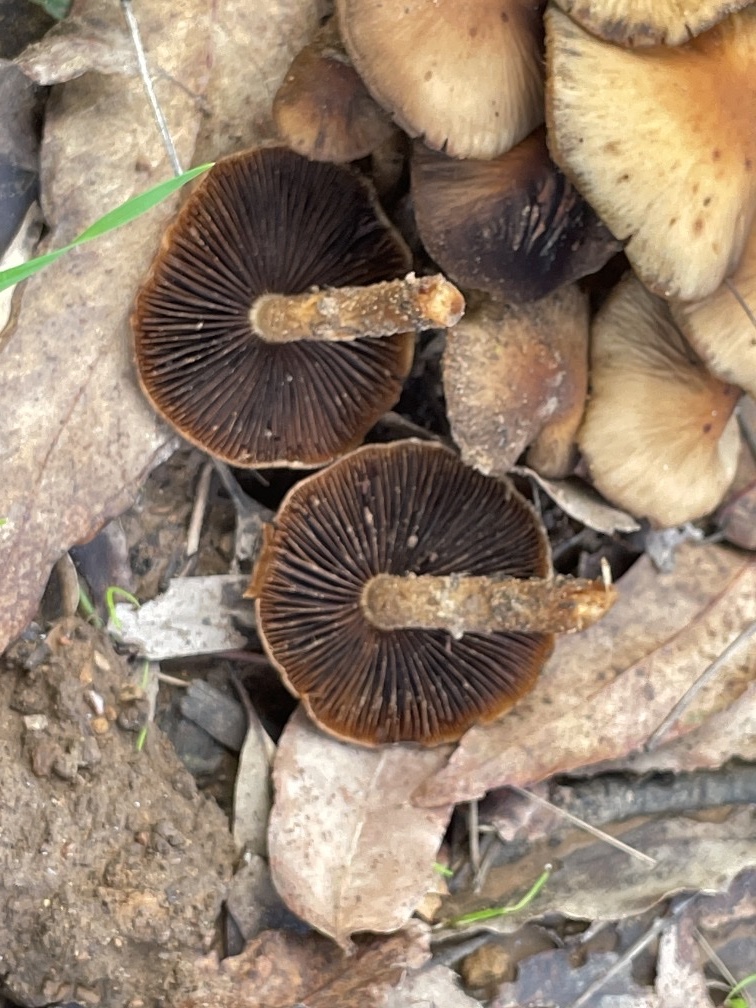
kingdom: Fungi
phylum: Basidiomycota
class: Agaricomycetes
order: Agaricales
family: Psathyrellaceae
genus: Lacrymaria
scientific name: Lacrymaria lacrymabunda
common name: Weeping widow
